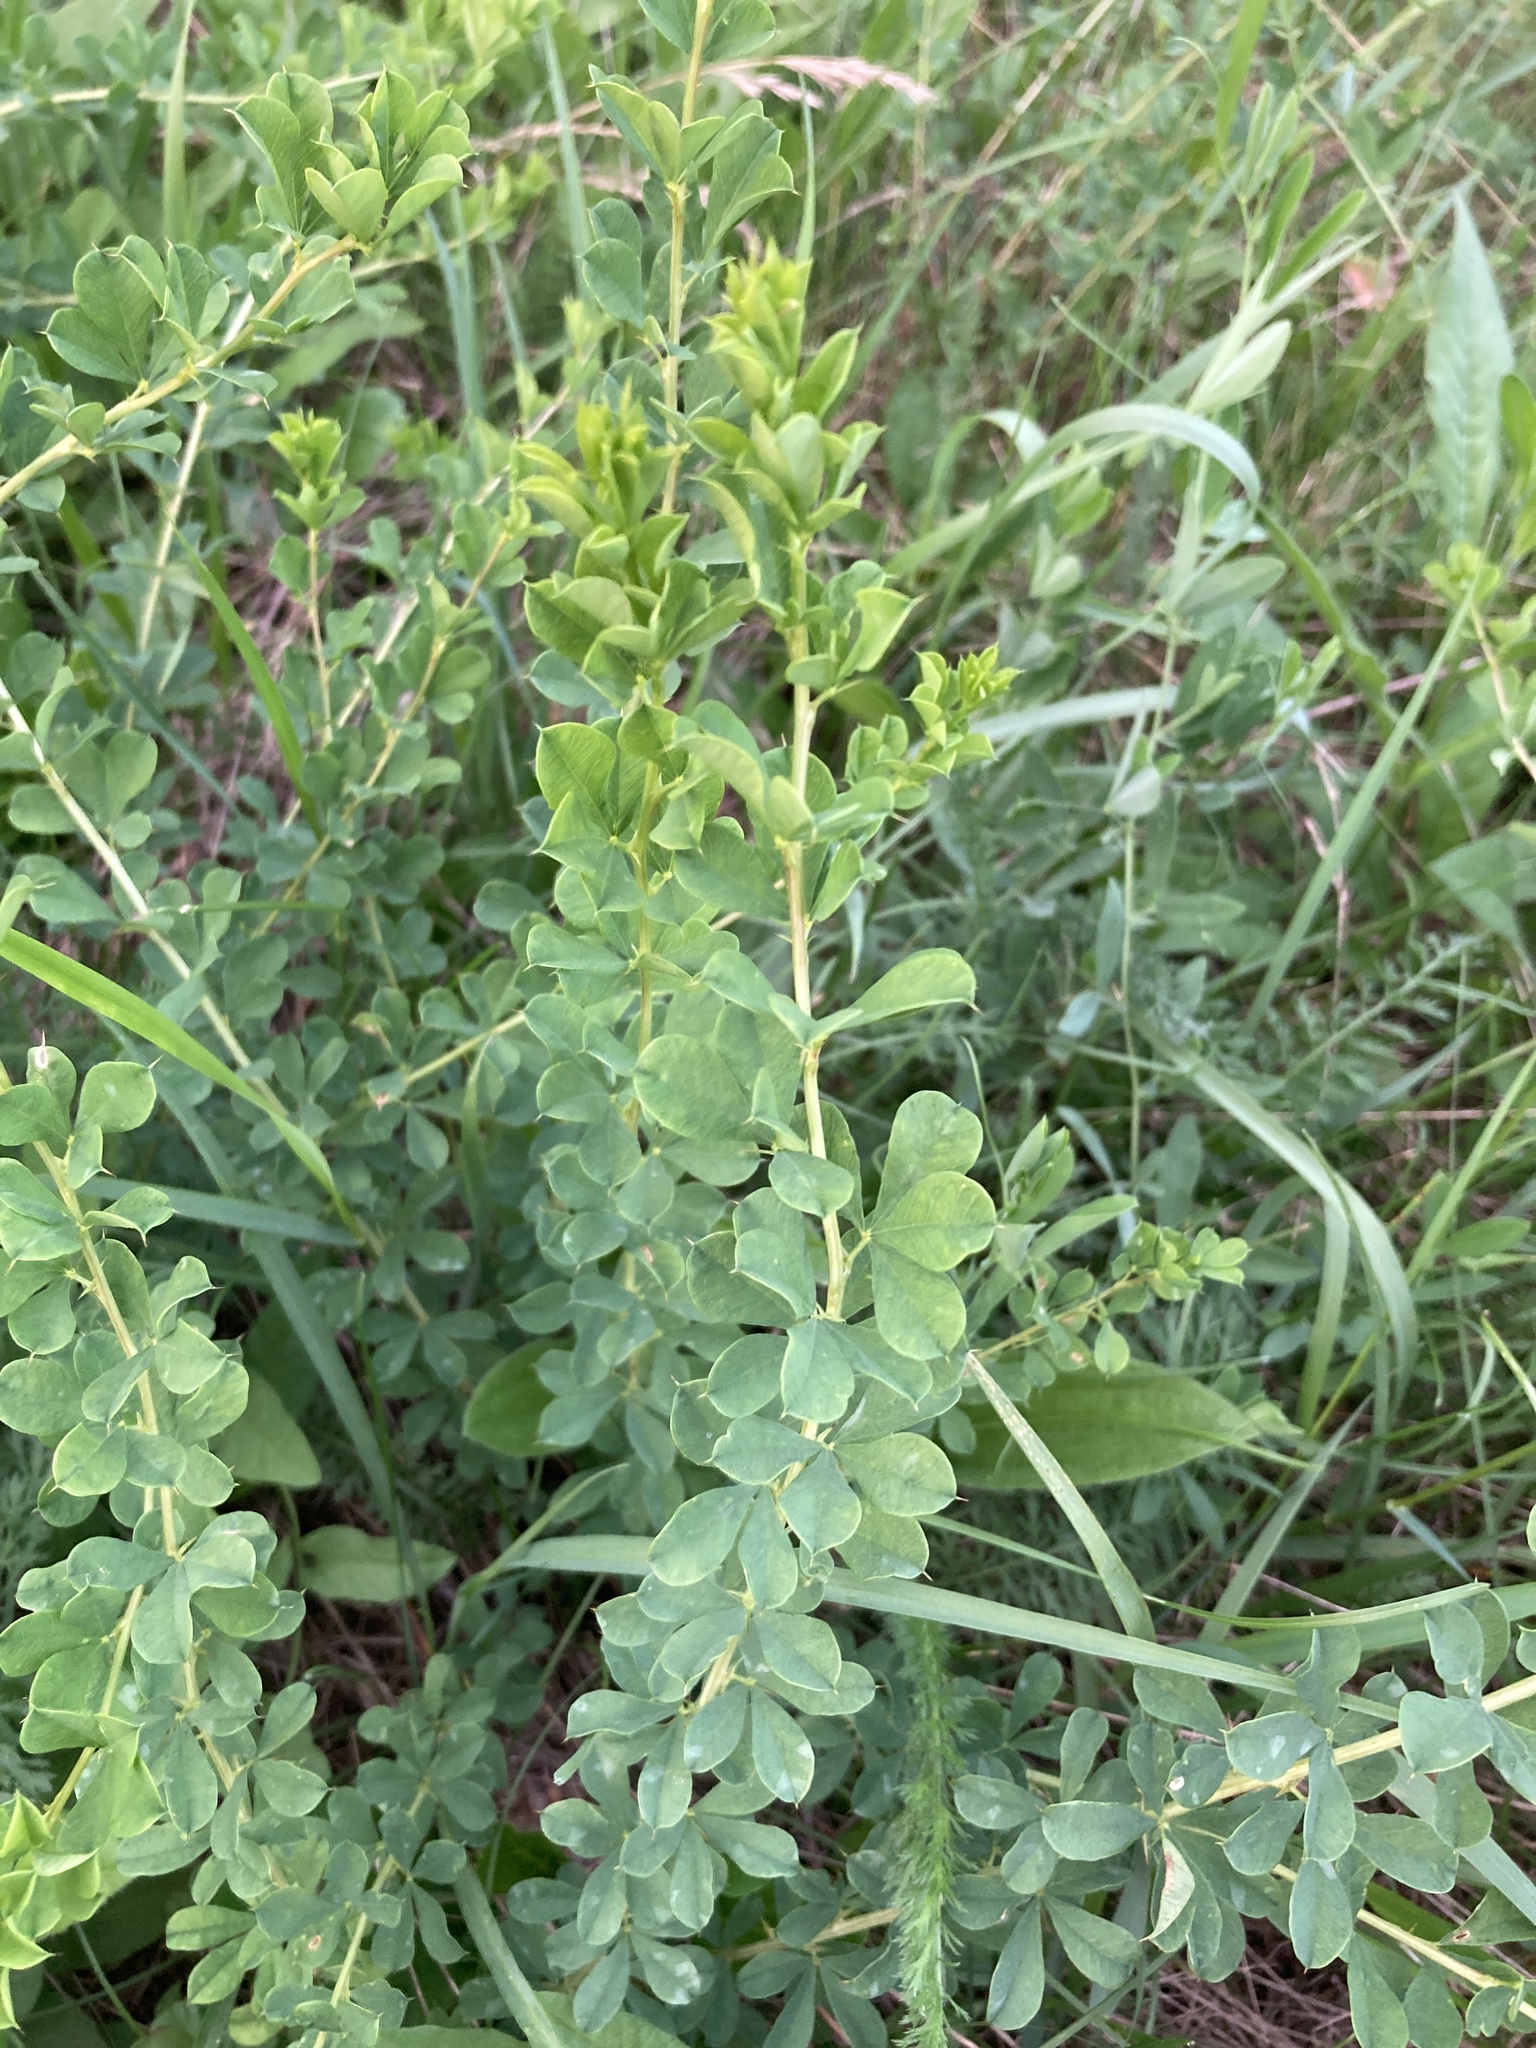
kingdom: Plantae
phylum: Tracheophyta
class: Magnoliopsida
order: Fabales
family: Fabaceae
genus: Caragana
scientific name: Caragana frutex
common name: Russian peashrub
